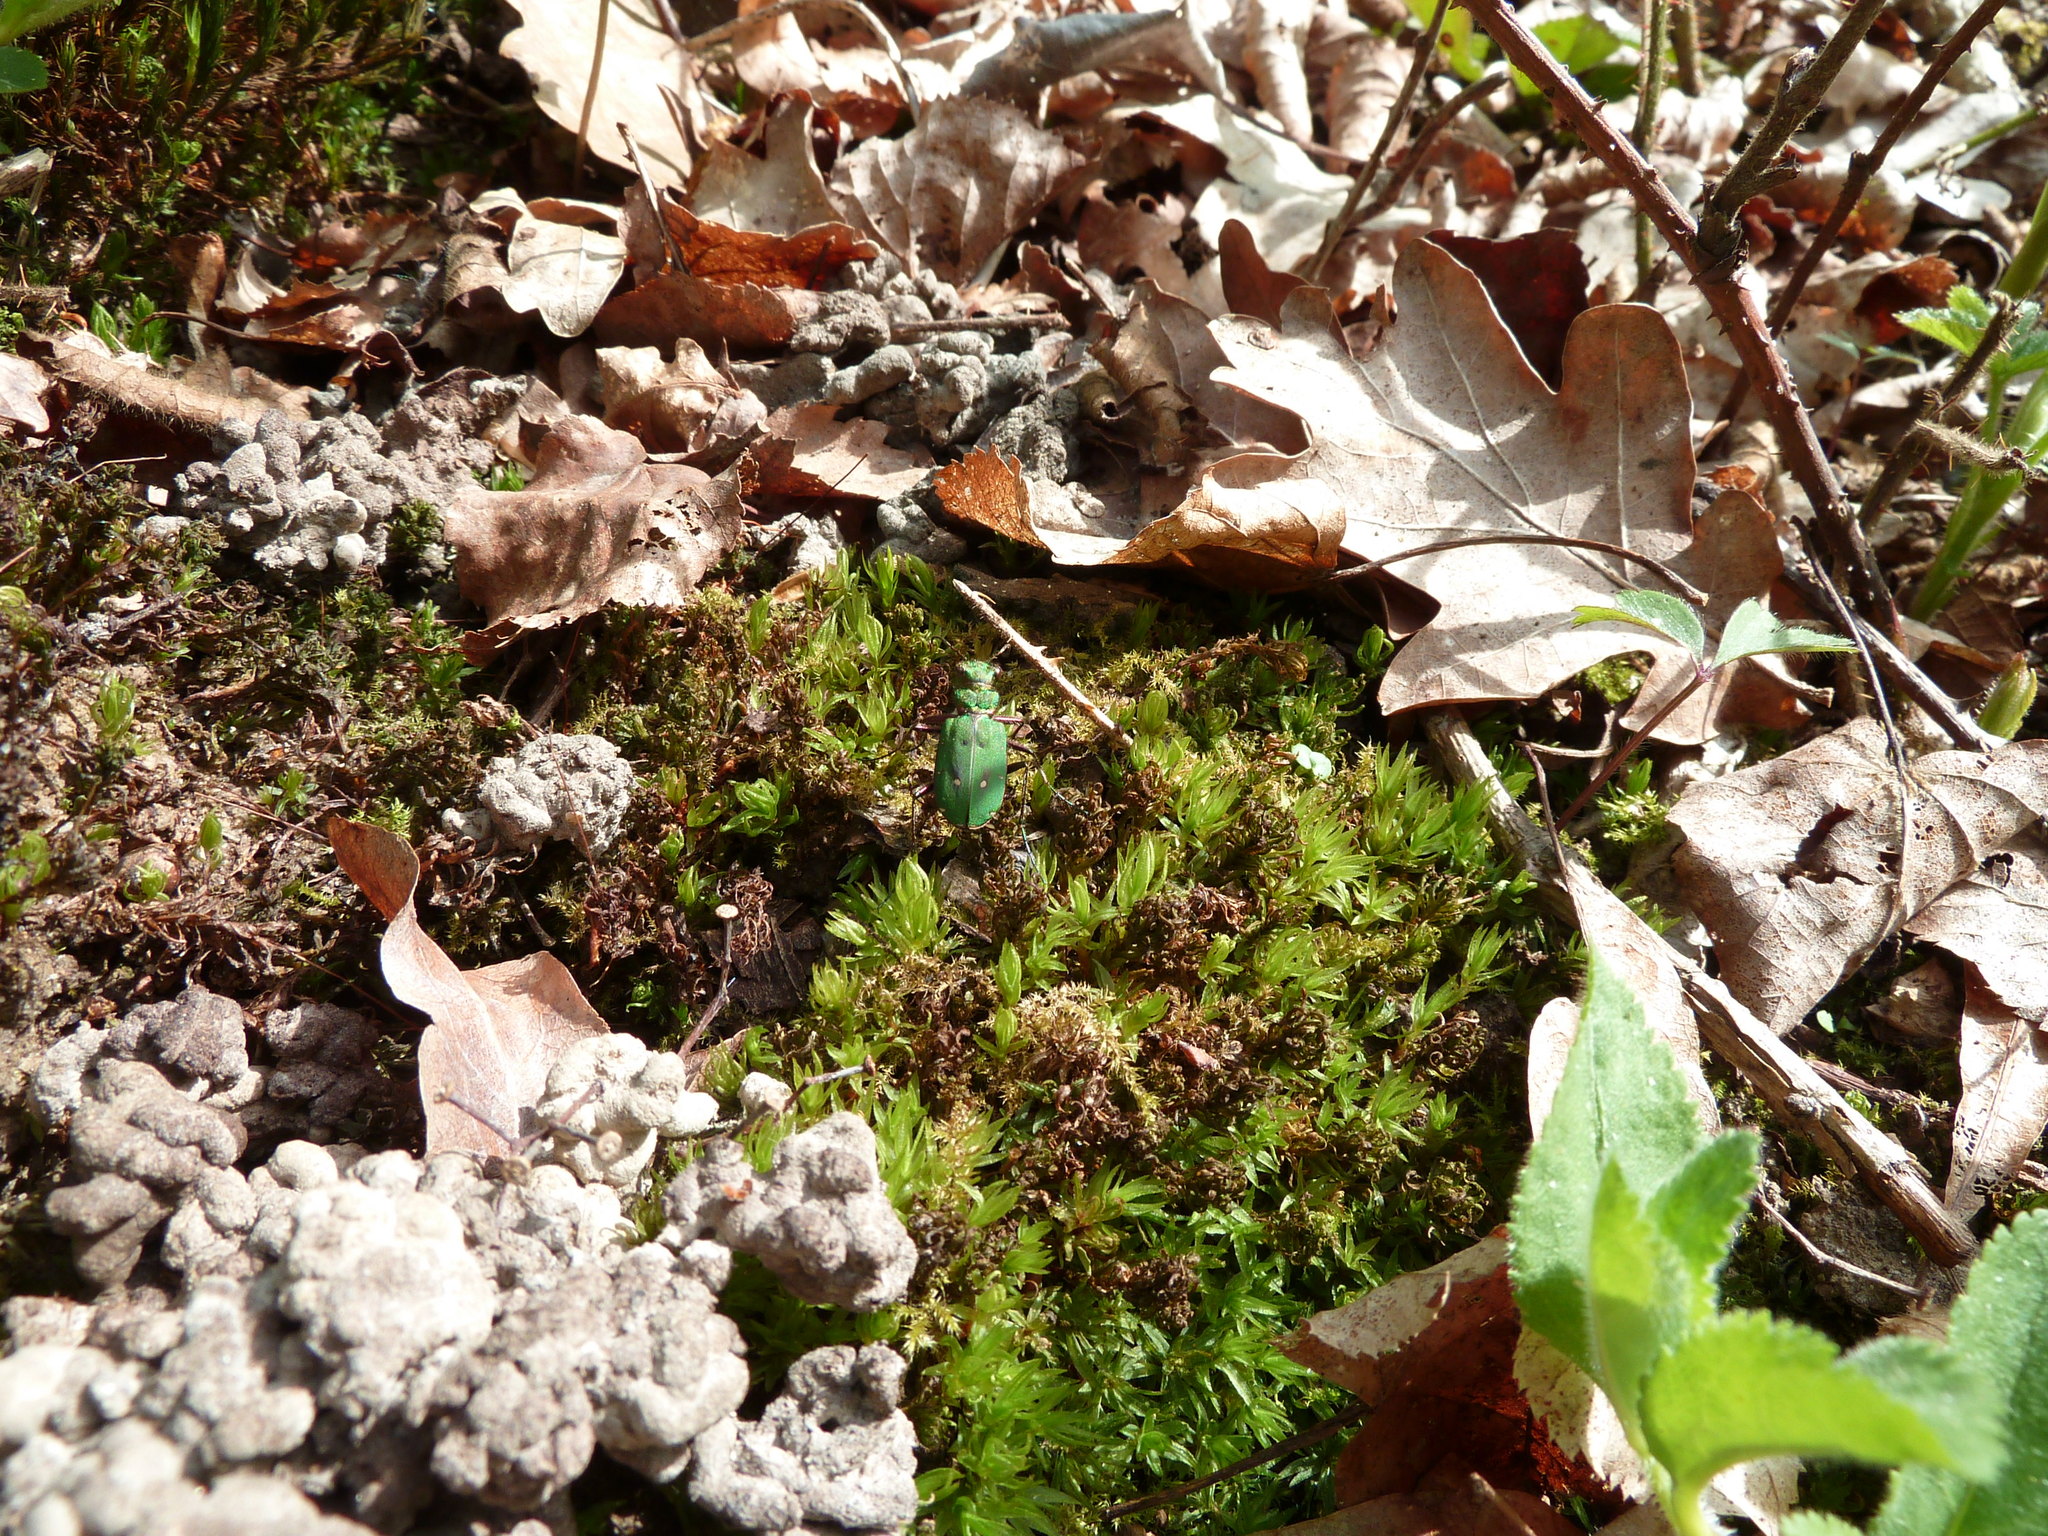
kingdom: Animalia
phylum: Arthropoda
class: Insecta
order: Coleoptera
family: Carabidae
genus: Cicindela
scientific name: Cicindela campestris
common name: Common tiger beetle
